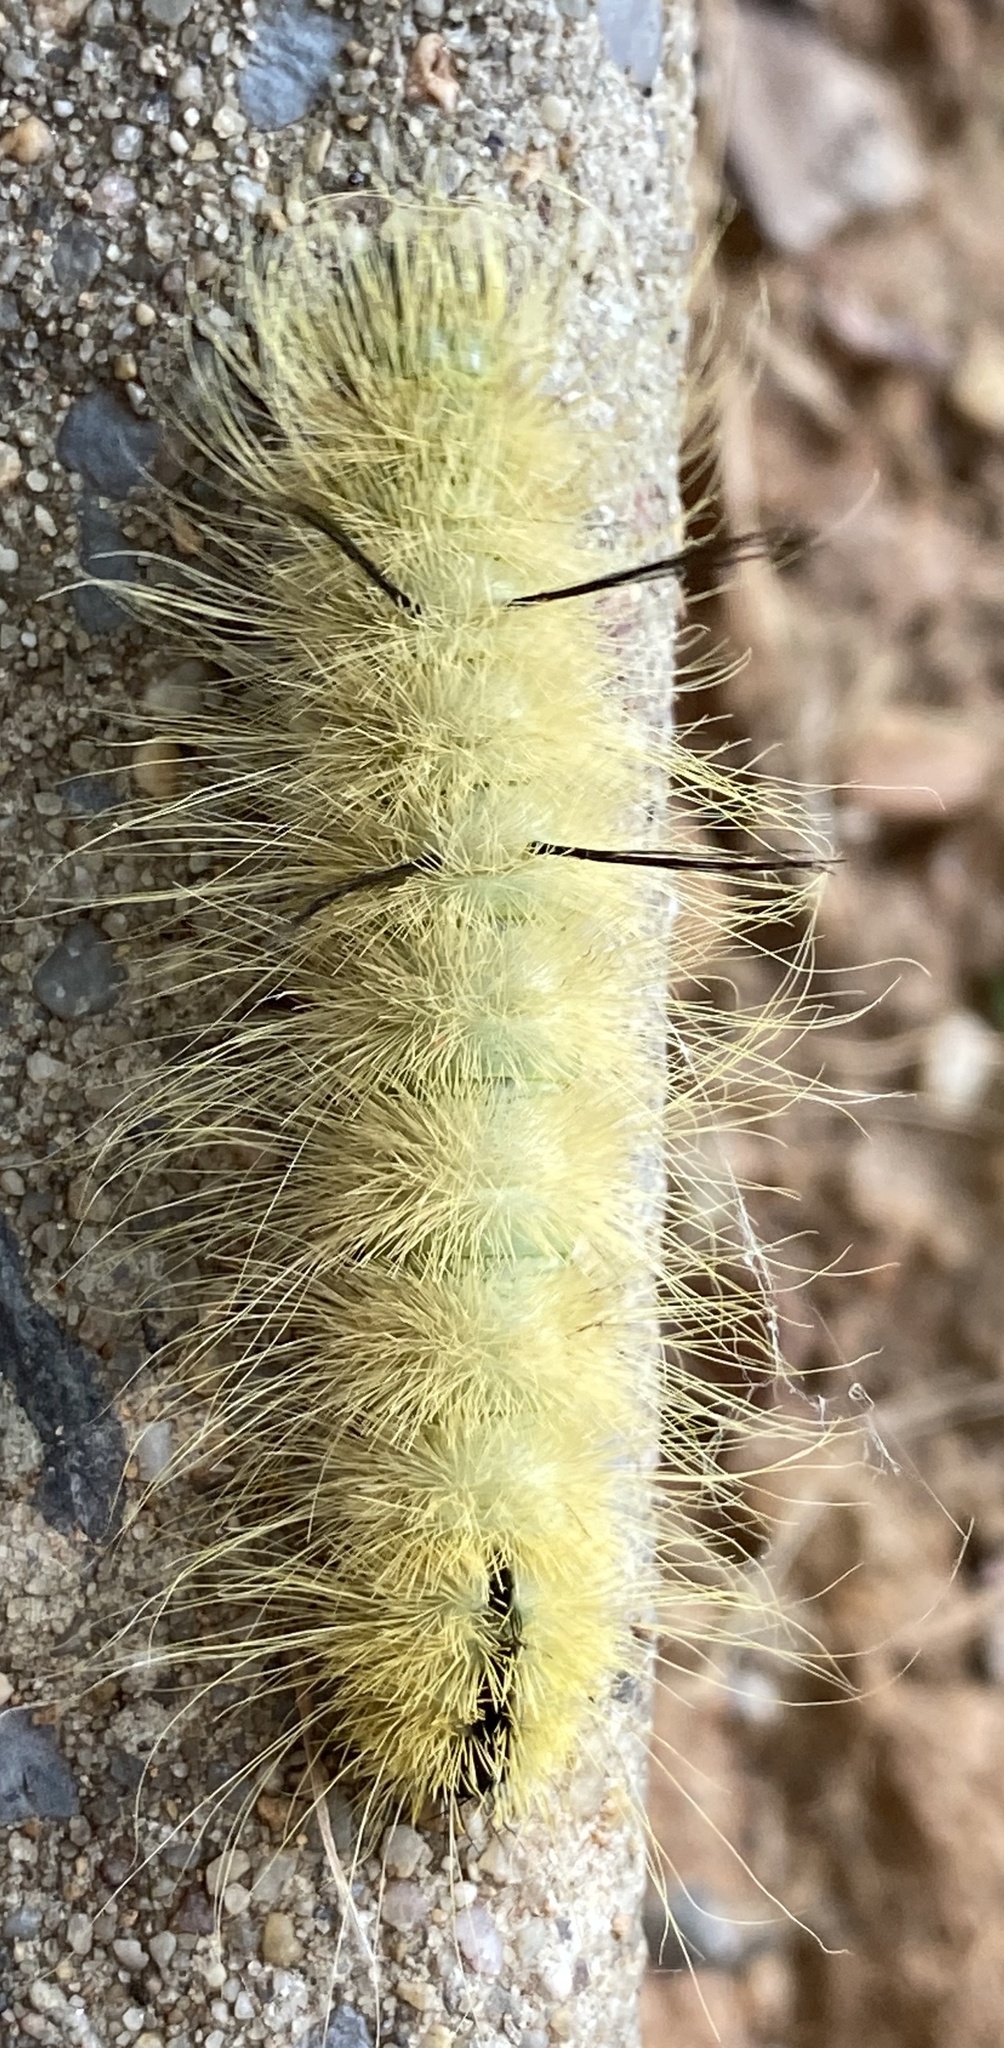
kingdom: Animalia
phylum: Arthropoda
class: Insecta
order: Lepidoptera
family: Noctuidae
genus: Acronicta
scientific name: Acronicta americana
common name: American dagger
